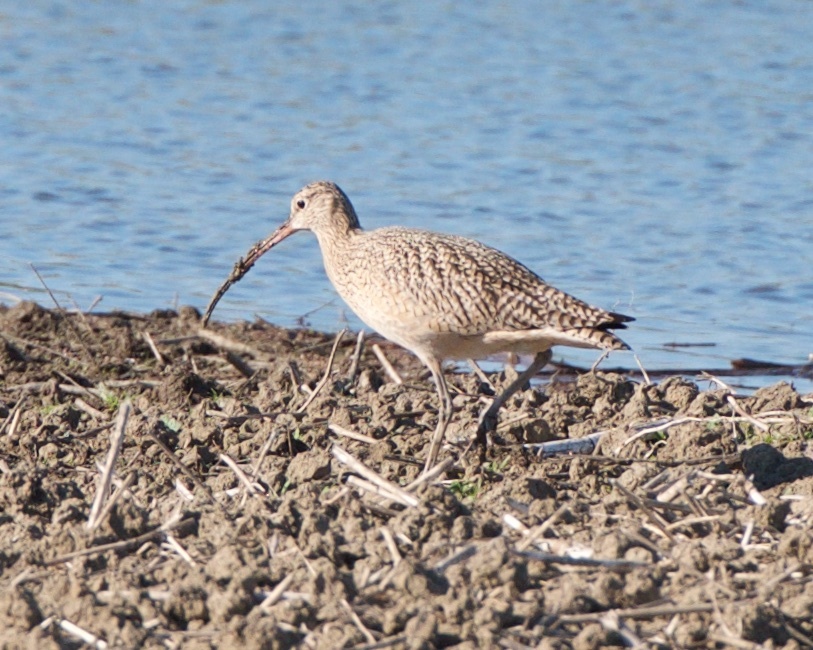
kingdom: Animalia
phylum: Chordata
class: Aves
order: Charadriiformes
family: Scolopacidae
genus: Numenius
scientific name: Numenius americanus
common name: Long-billed curlew
